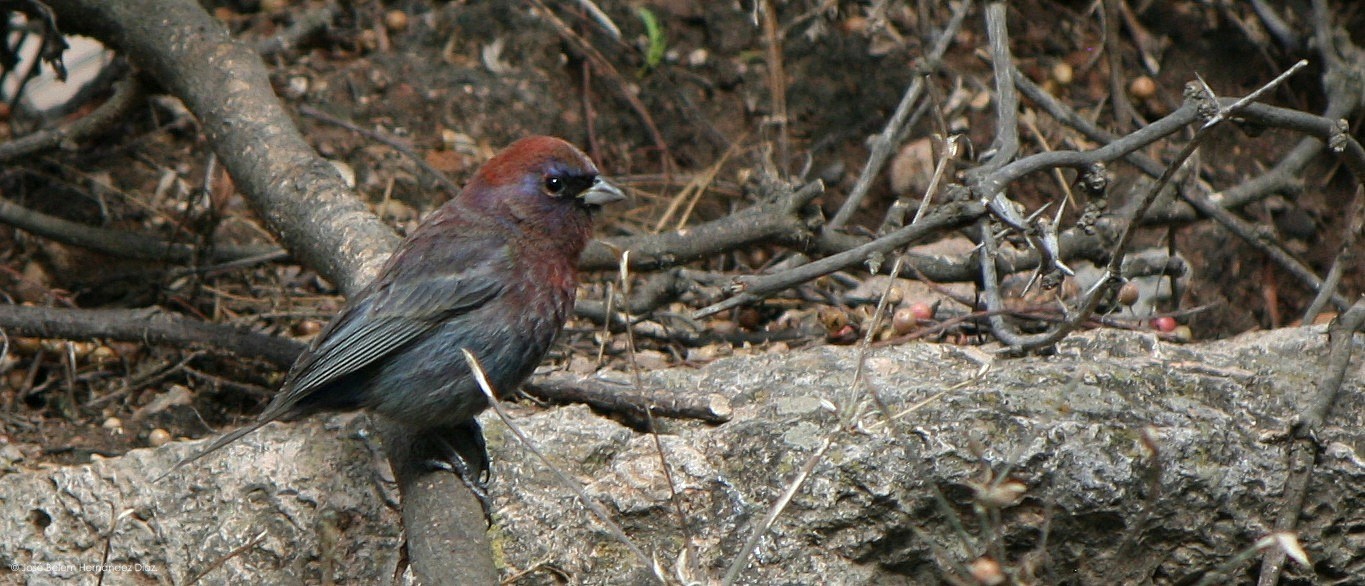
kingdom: Animalia
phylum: Chordata
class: Aves
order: Passeriformes
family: Cardinalidae
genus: Passerina
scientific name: Passerina versicolor
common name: Varied bunting
